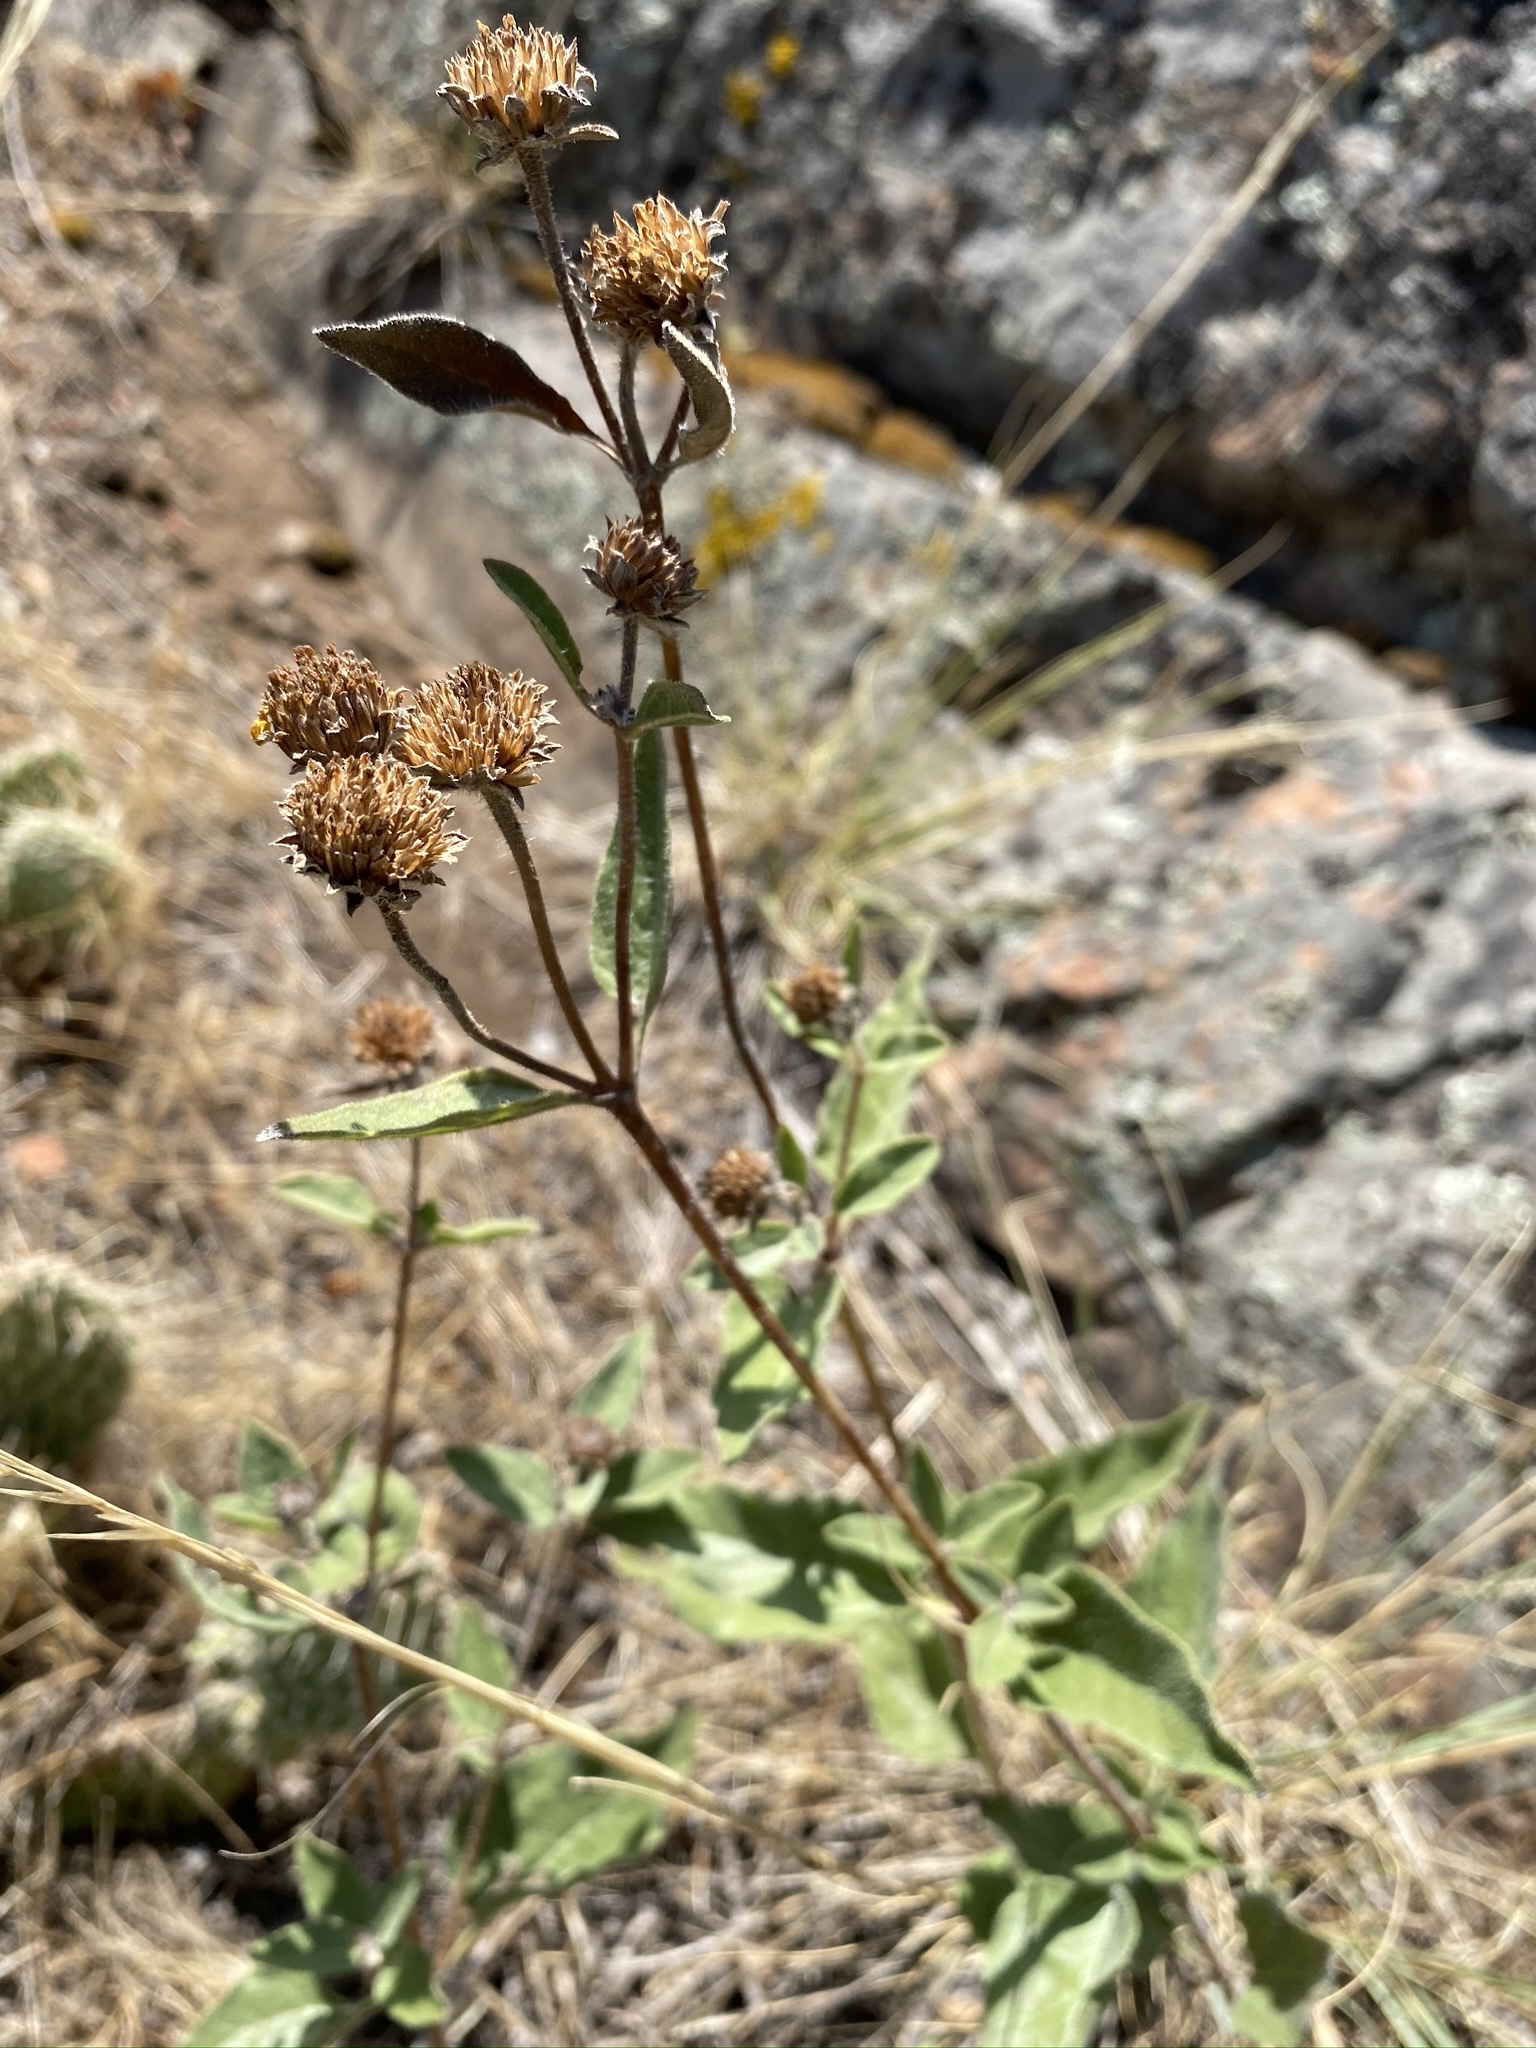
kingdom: Plantae
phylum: Tracheophyta
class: Magnoliopsida
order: Asterales
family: Asteraceae
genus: Helianthus
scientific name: Helianthus pumilus
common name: Dwarf sunflower
